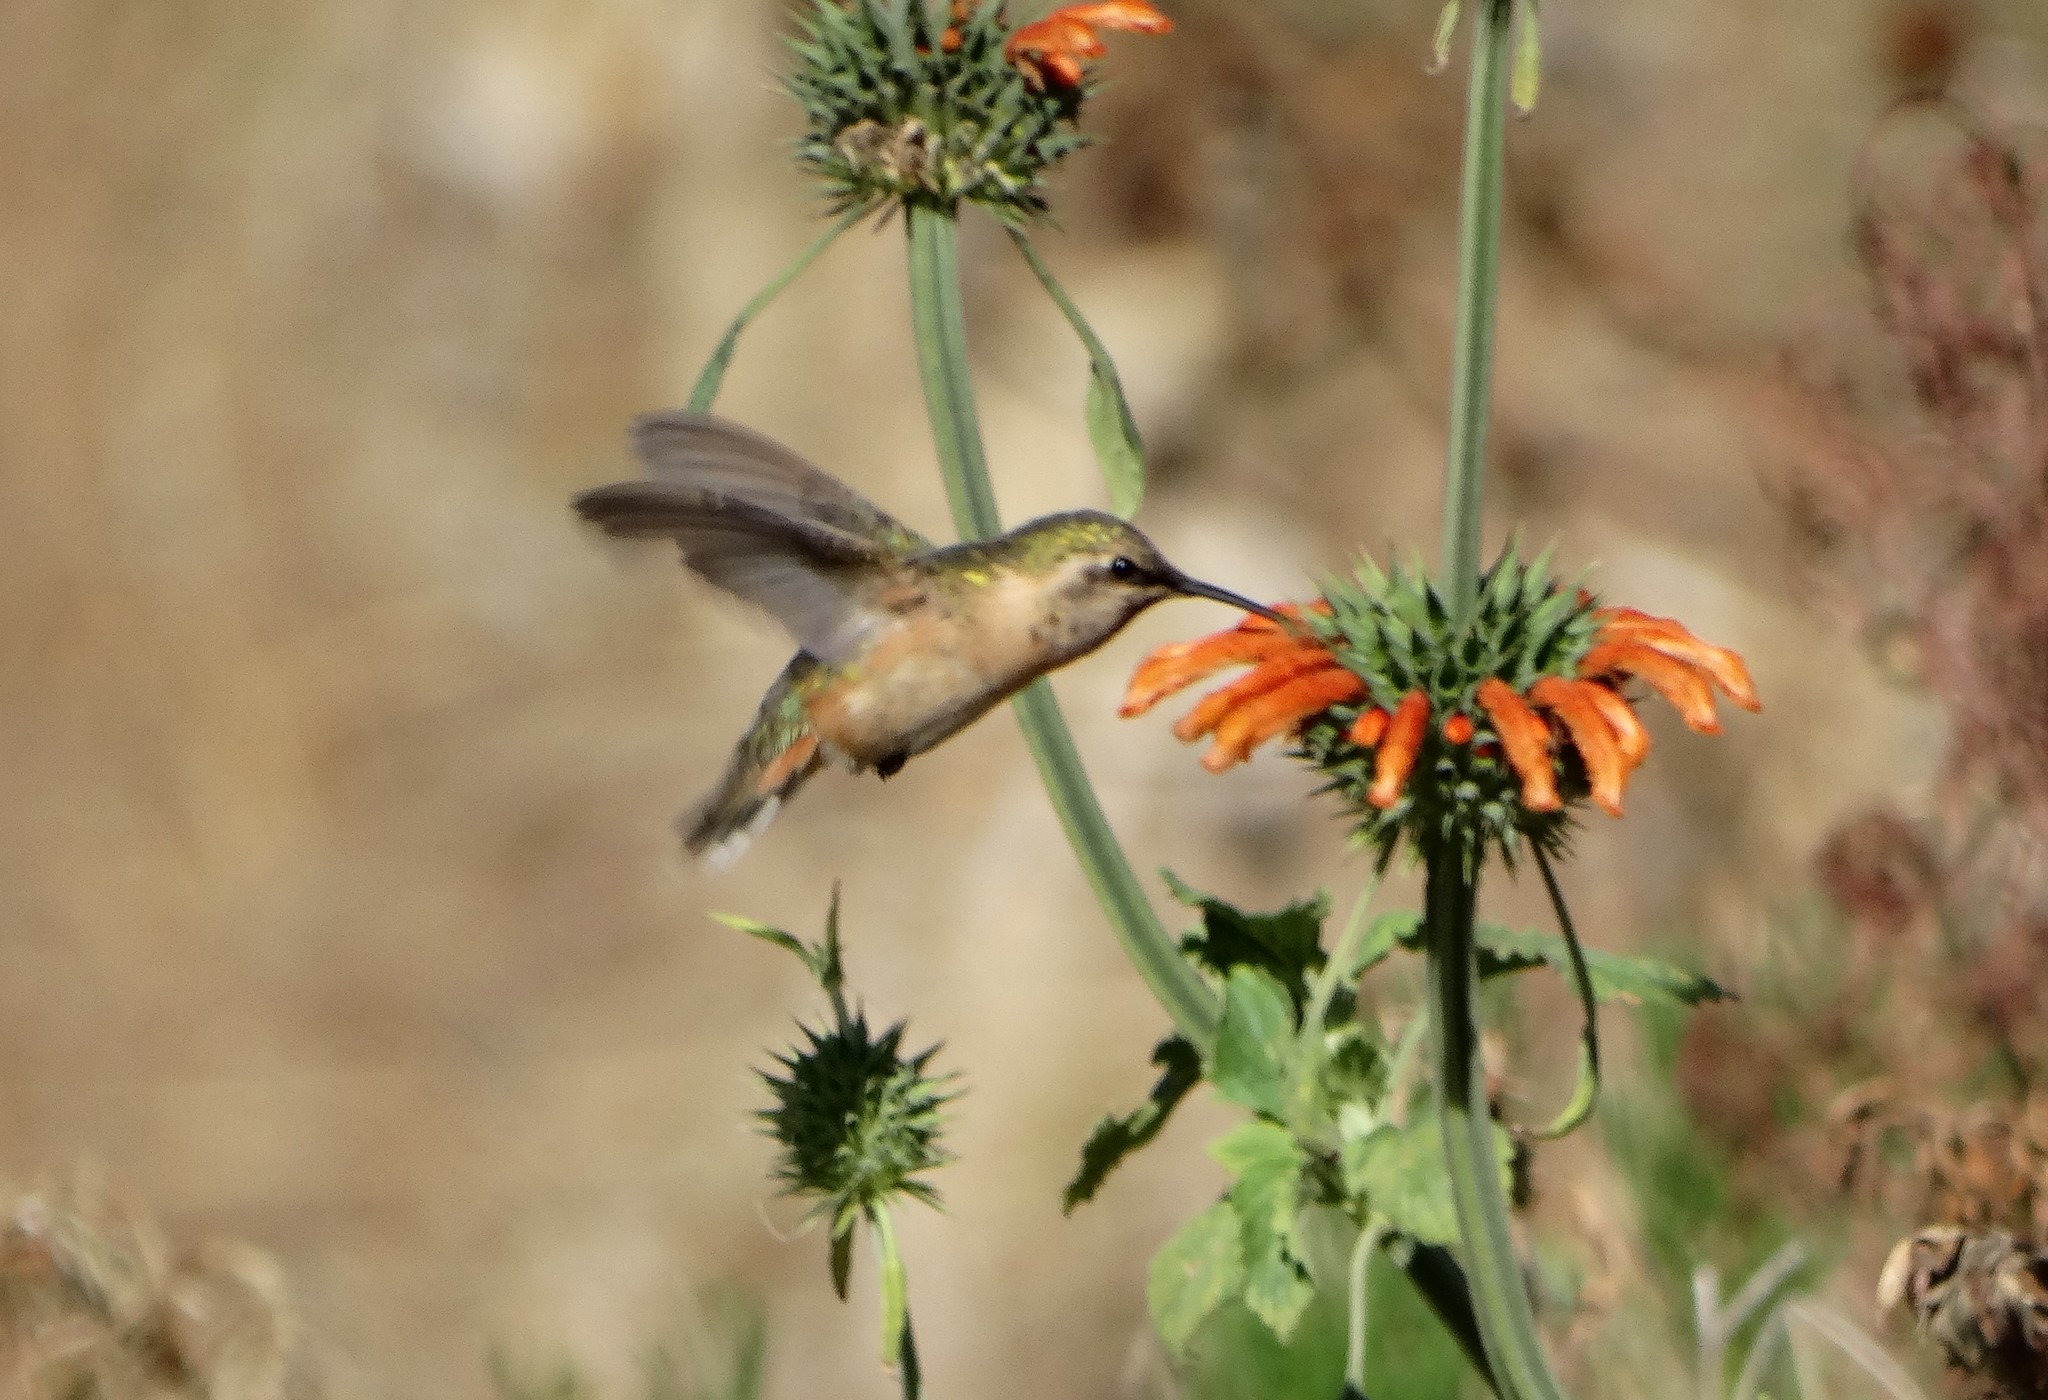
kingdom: Animalia
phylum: Chordata
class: Aves
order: Apodiformes
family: Trochilidae
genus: Calothorax
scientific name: Calothorax lucifer
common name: Lucifer sheartail
